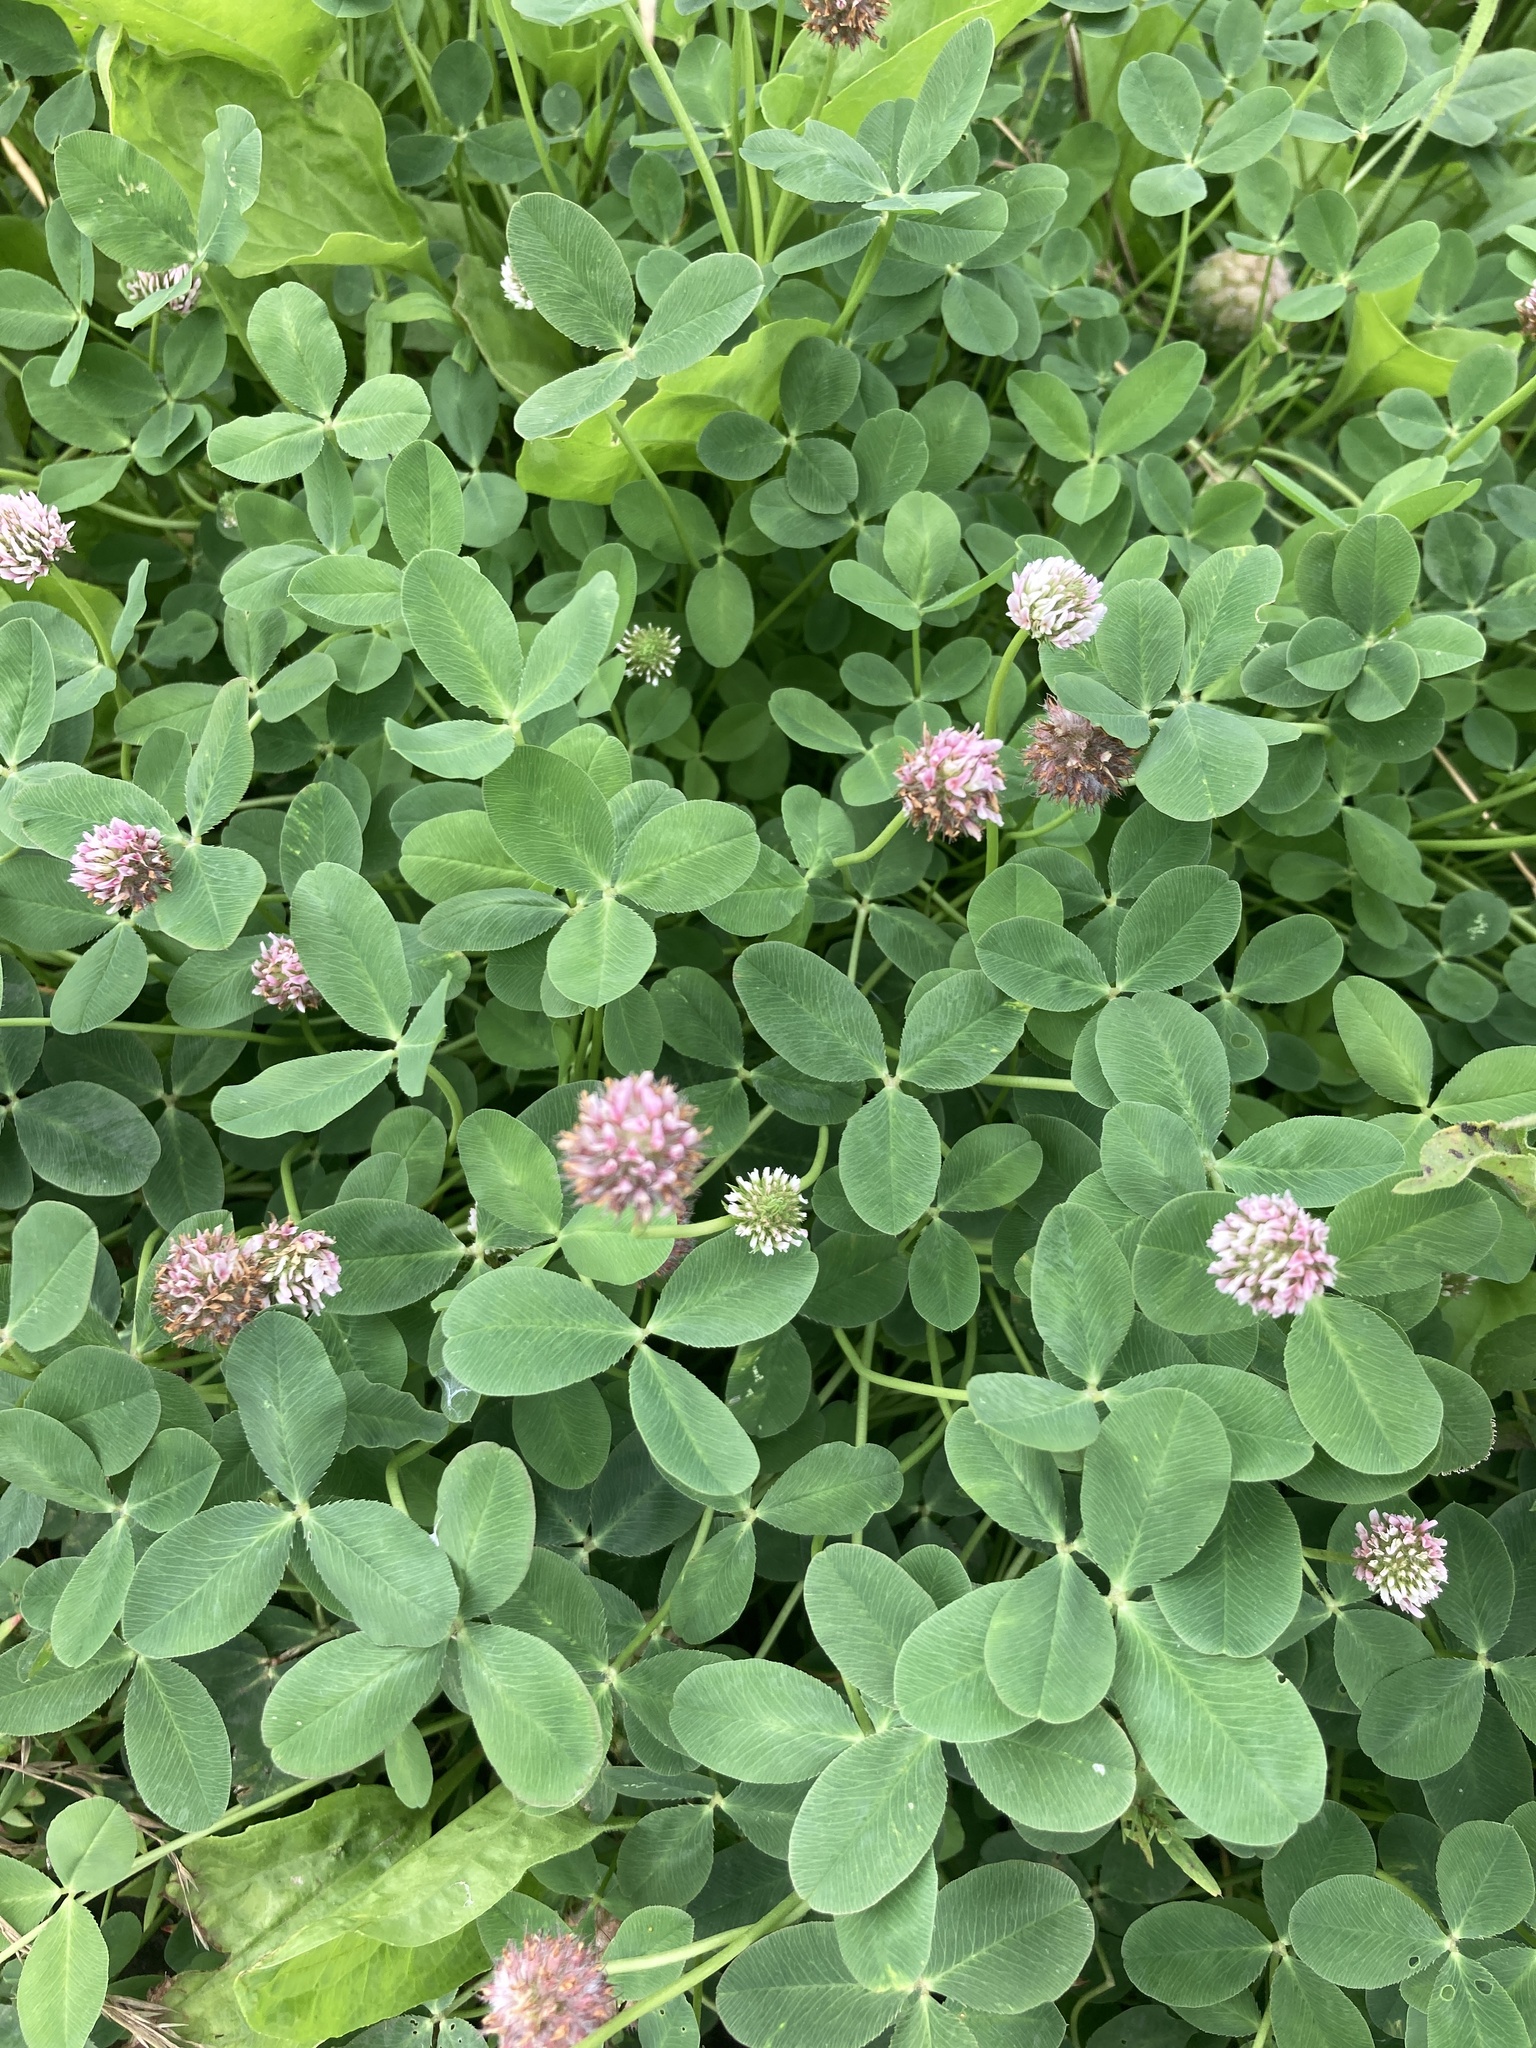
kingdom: Plantae
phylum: Tracheophyta
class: Magnoliopsida
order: Fabales
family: Fabaceae
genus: Trifolium
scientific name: Trifolium fragiferum
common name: Strawberry clover
